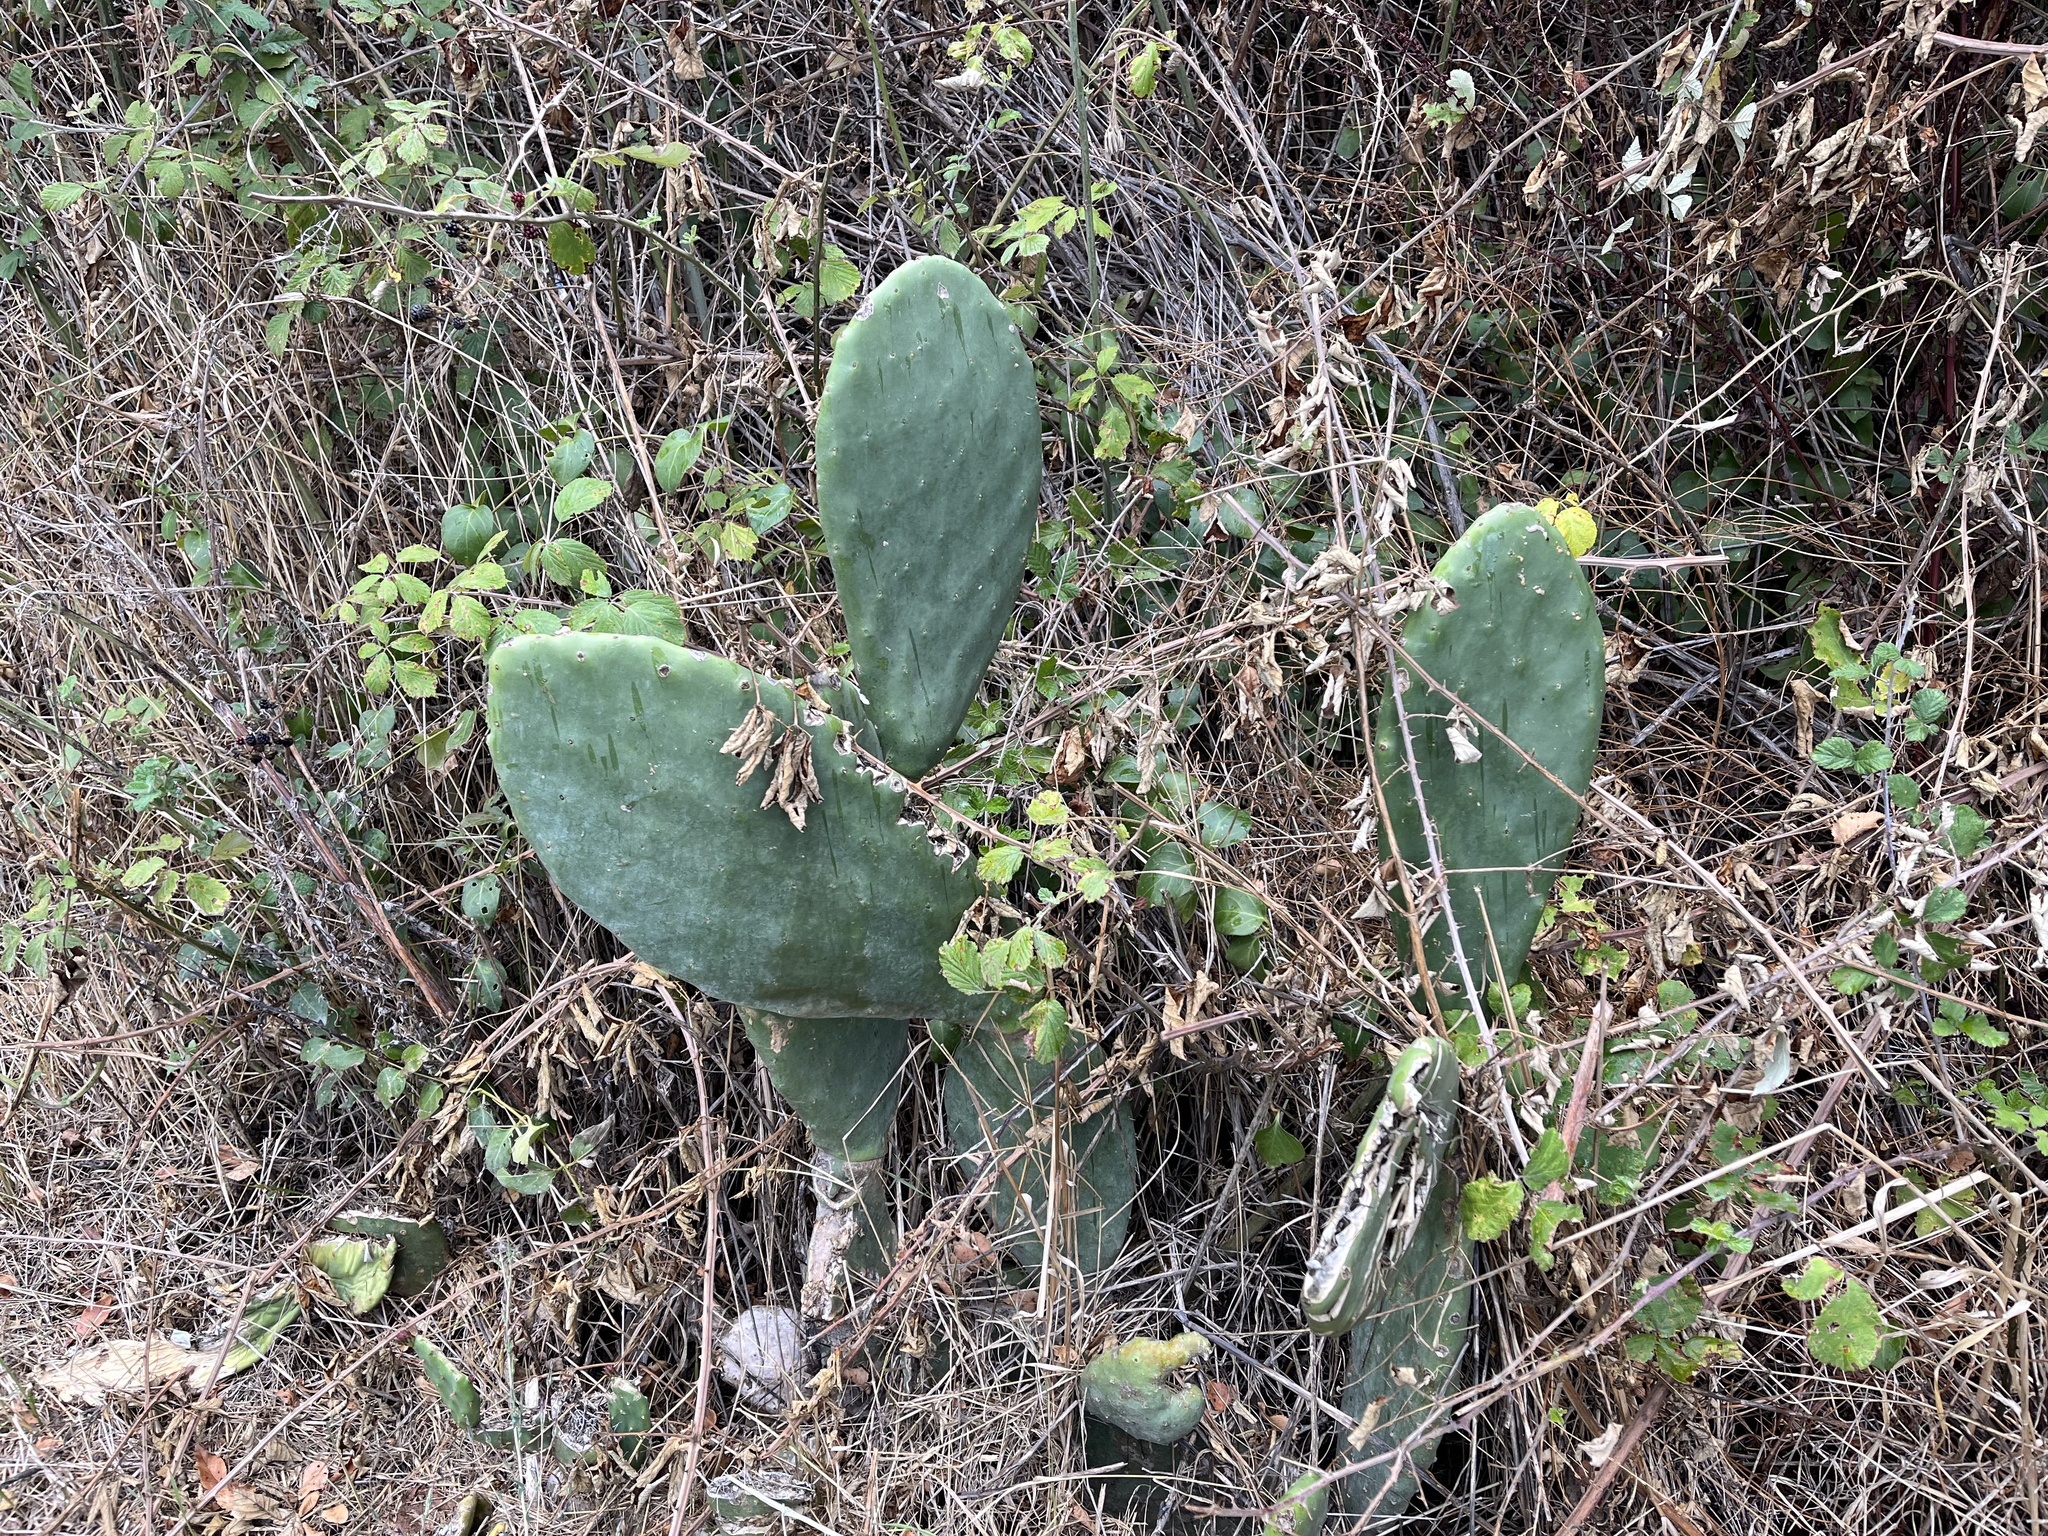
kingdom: Plantae
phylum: Tracheophyta
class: Magnoliopsida
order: Caryophyllales
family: Cactaceae
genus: Opuntia
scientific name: Opuntia ficus-indica
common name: Barbary fig
